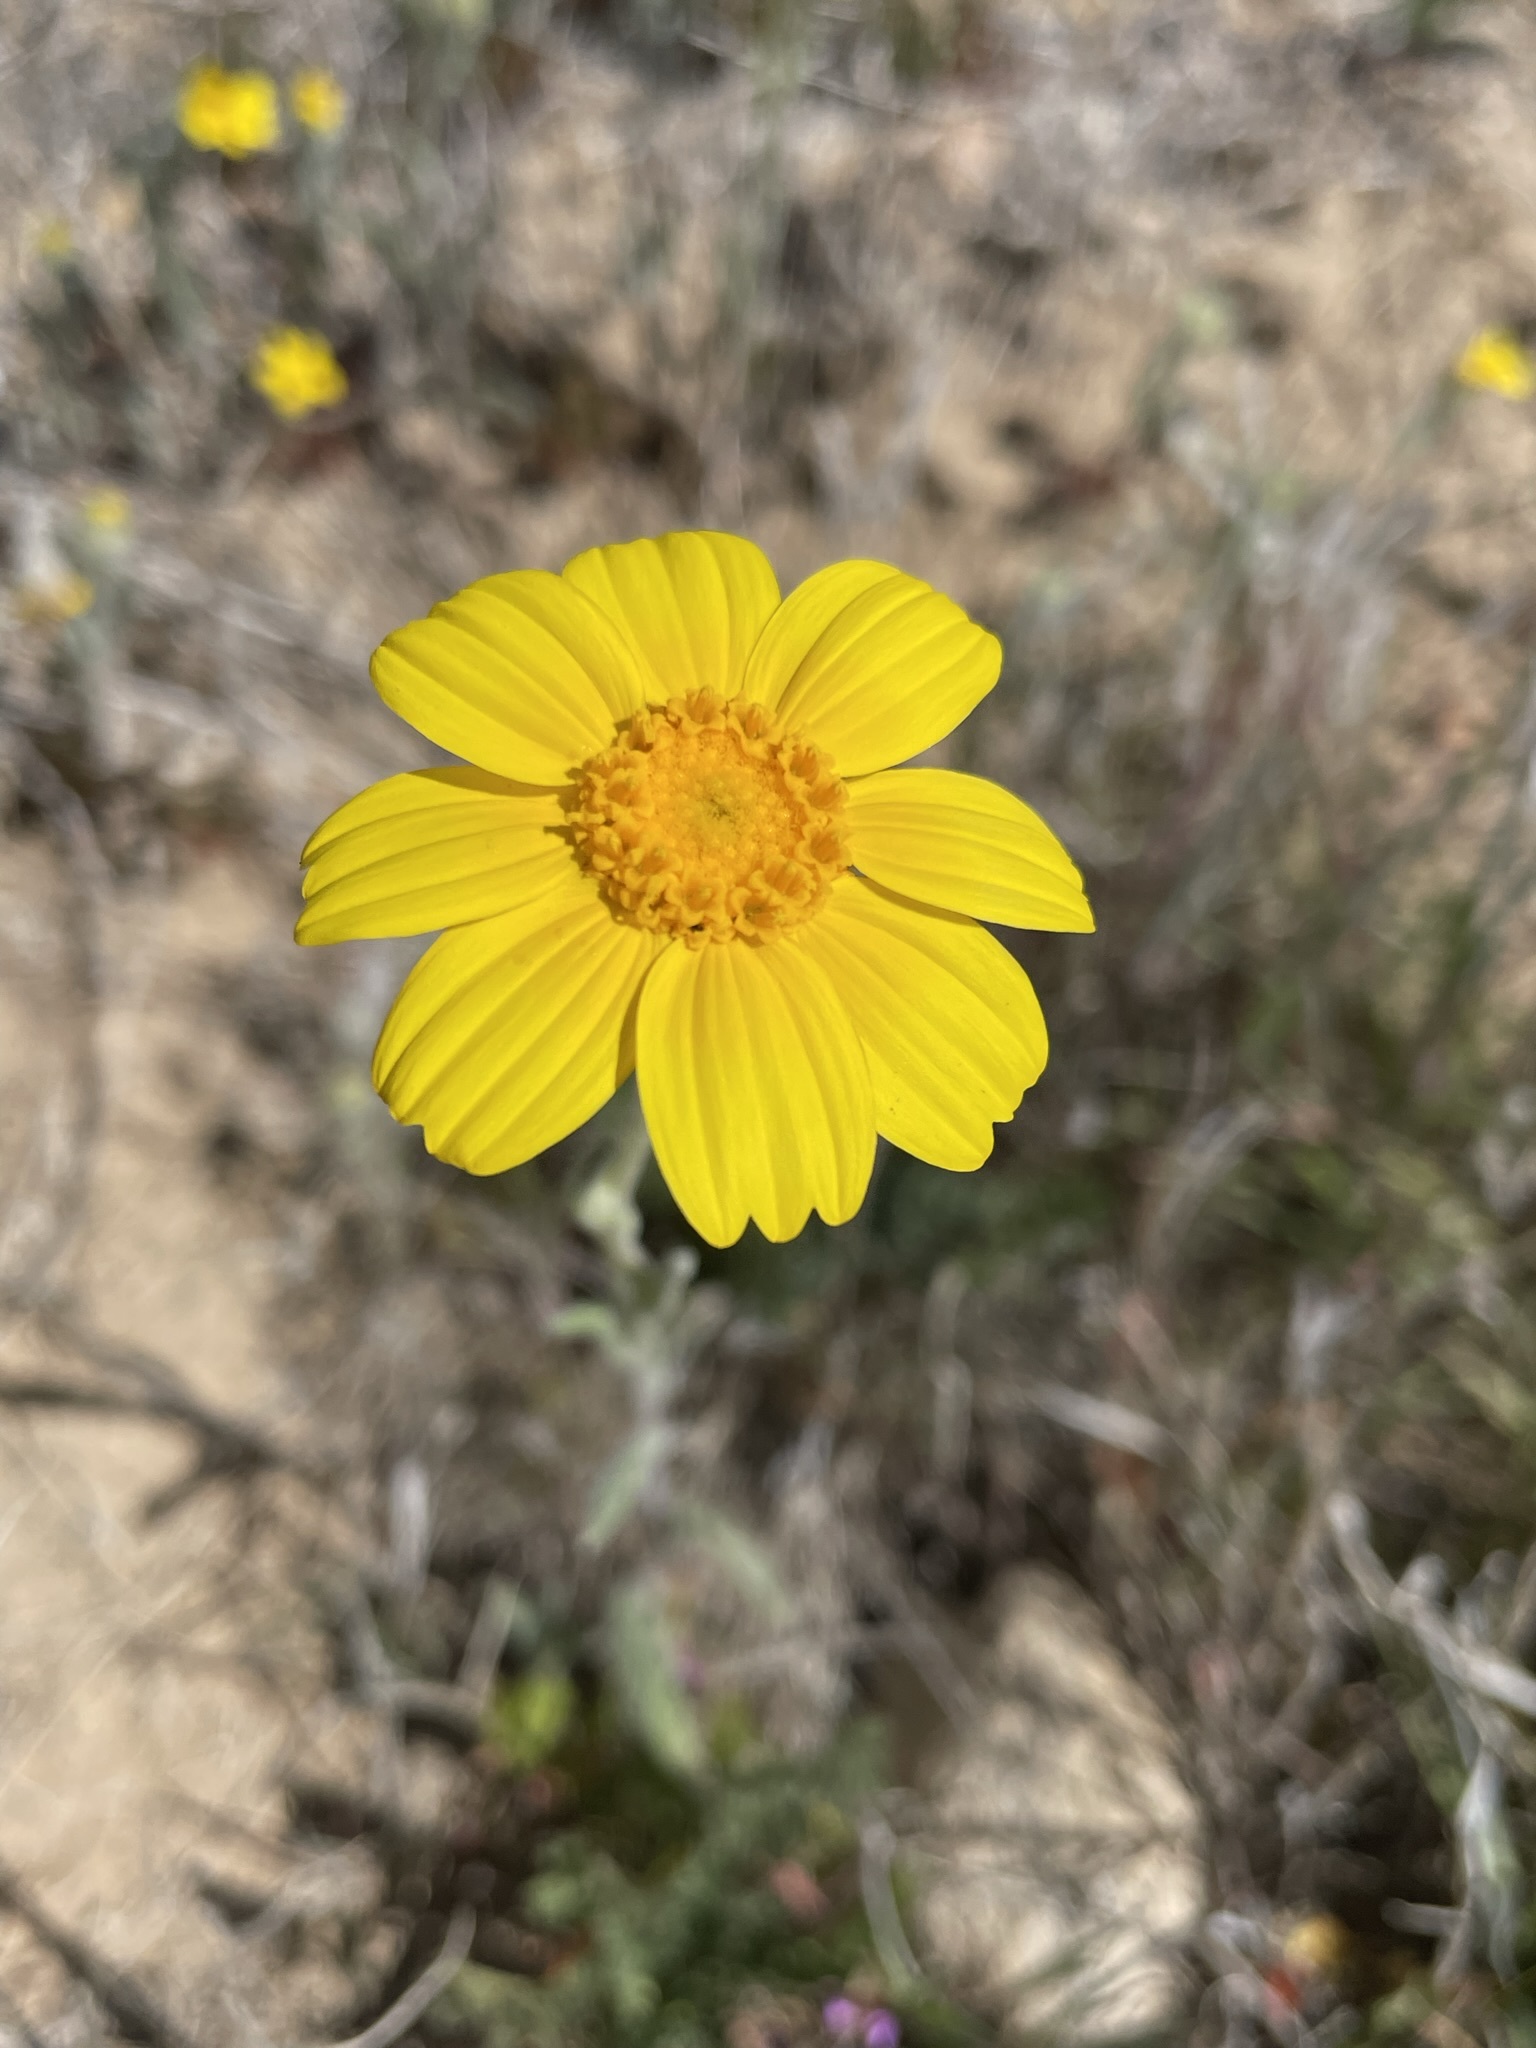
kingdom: Plantae
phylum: Tracheophyta
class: Magnoliopsida
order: Asterales
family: Asteraceae
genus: Monolopia
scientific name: Monolopia lanceolata
